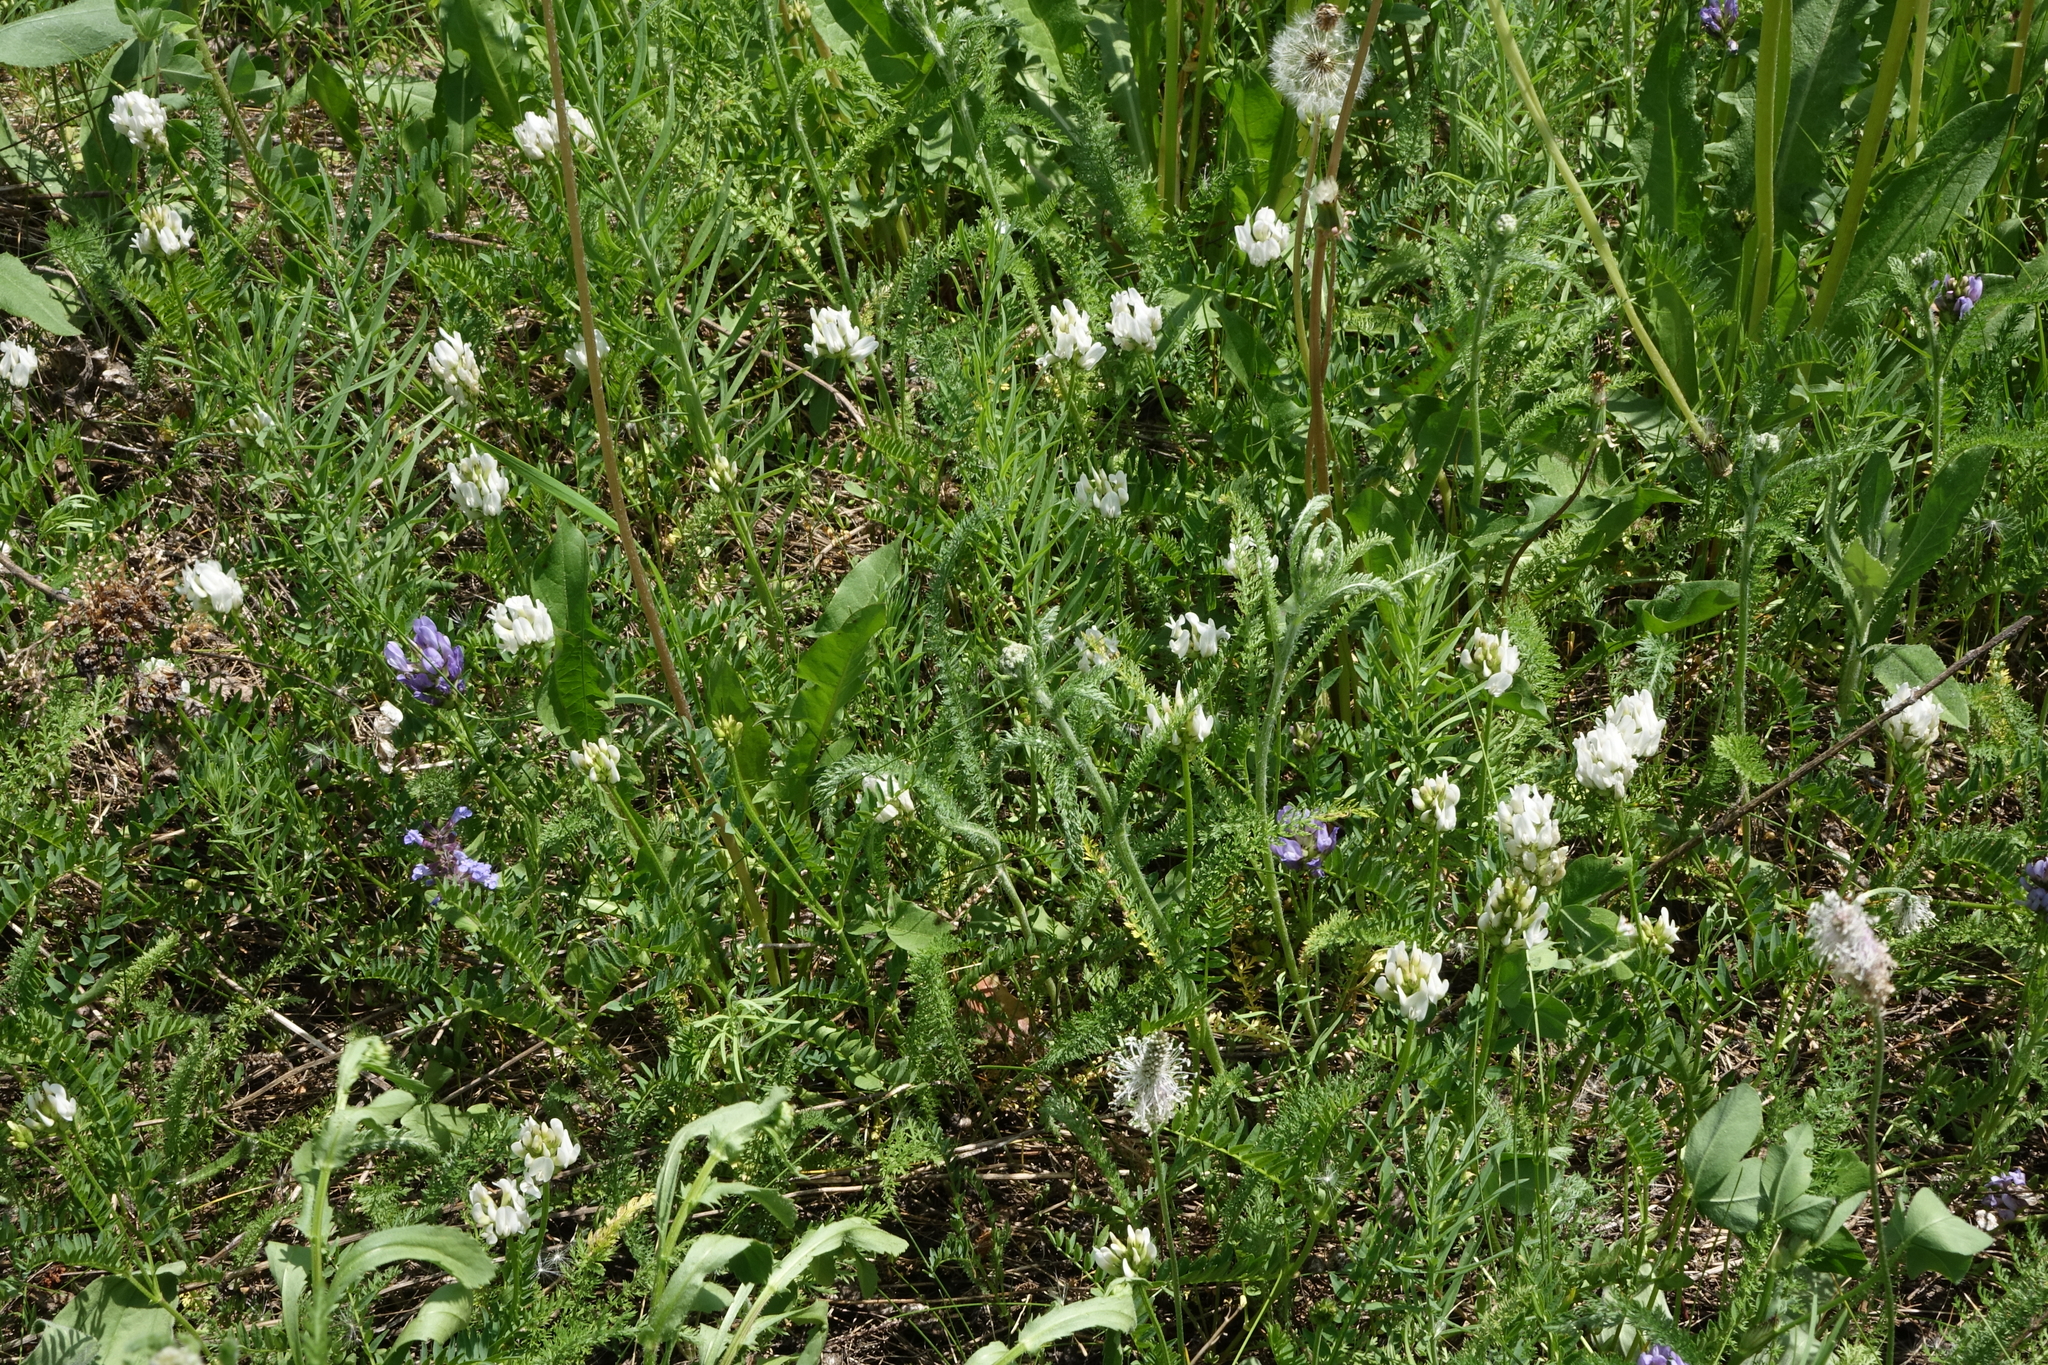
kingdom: Plantae
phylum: Tracheophyta
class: Magnoliopsida
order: Fabales
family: Fabaceae
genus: Astragalus
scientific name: Astragalus danicus
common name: Purple milk-vetch
